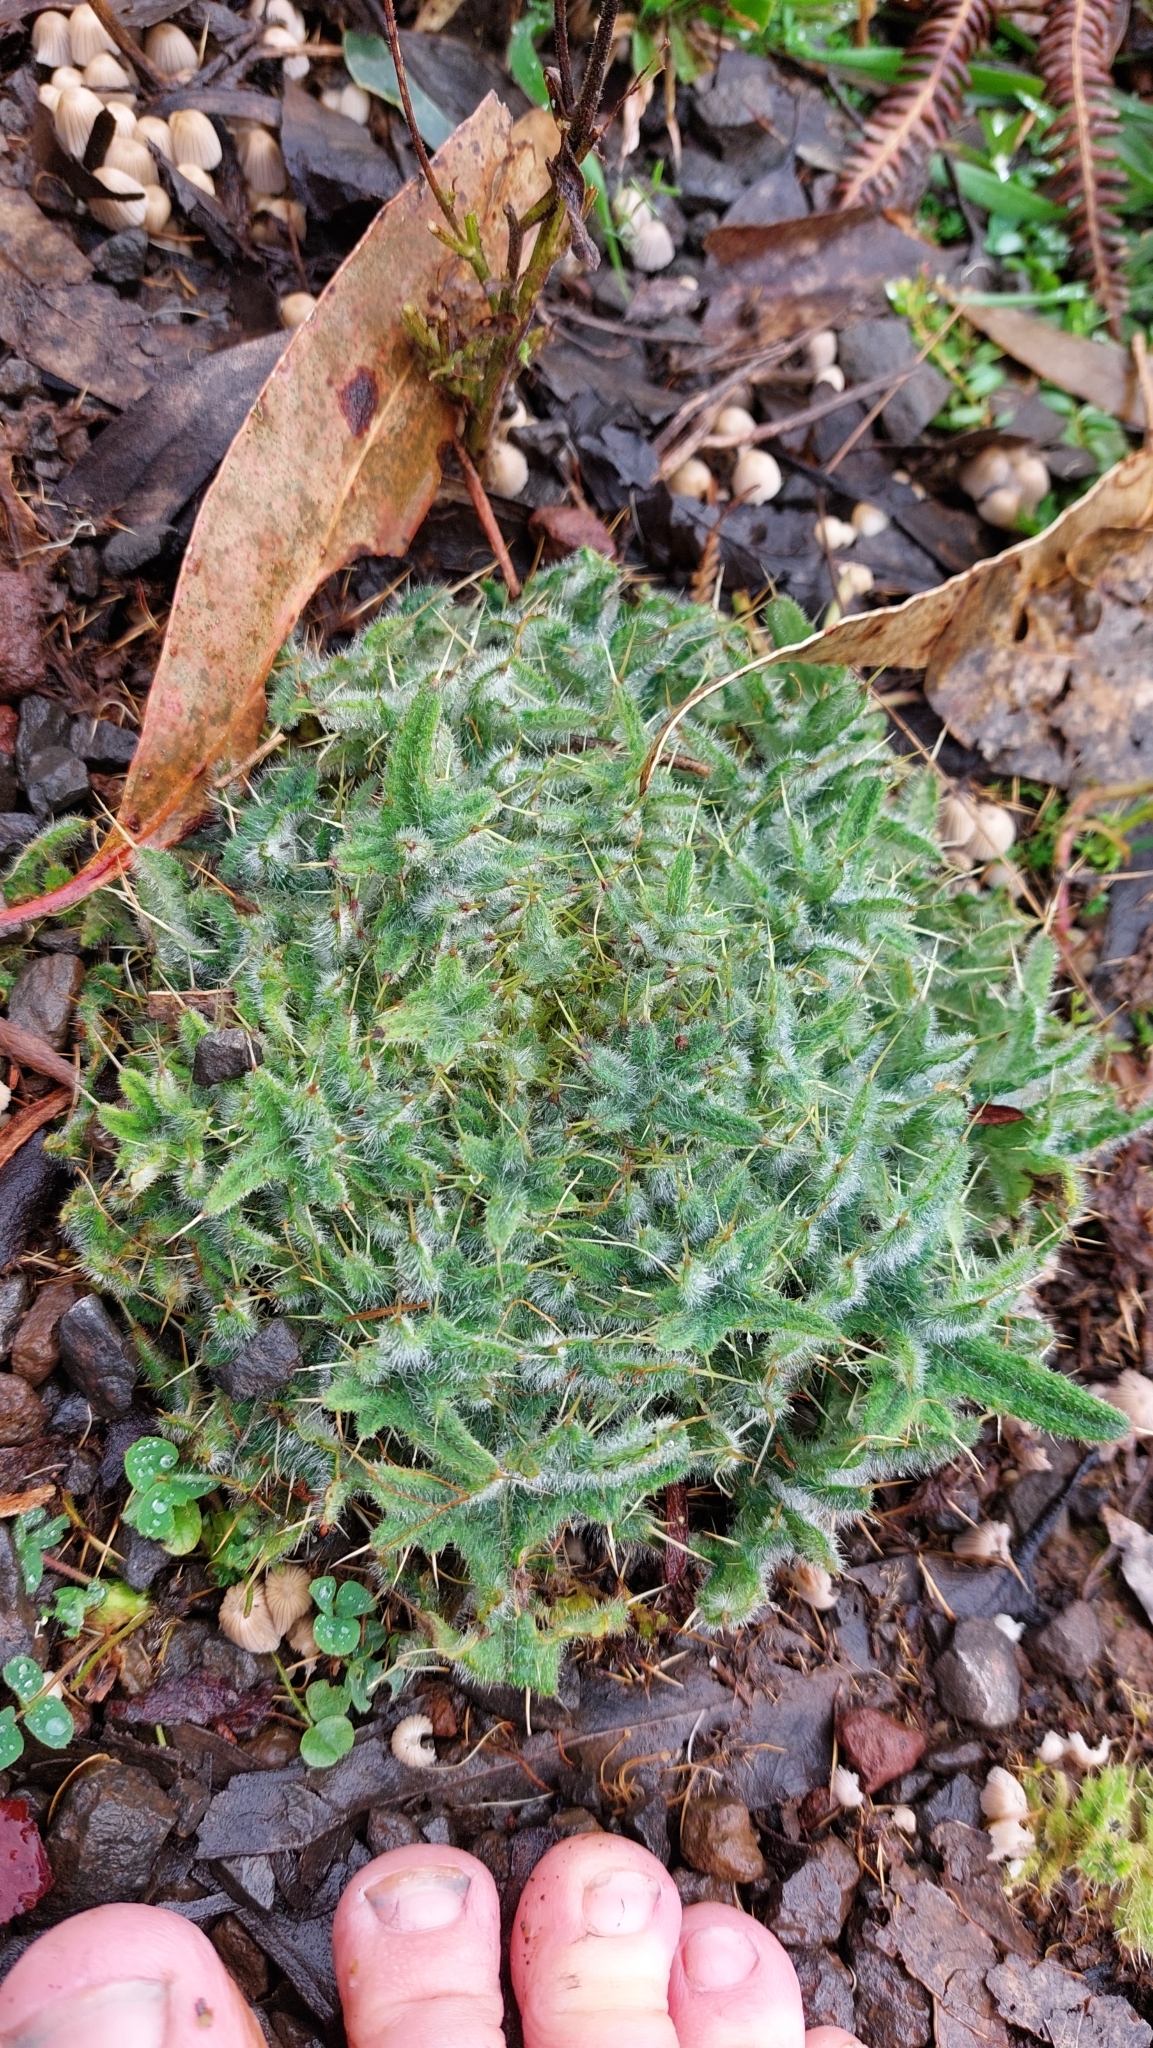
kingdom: Plantae
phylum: Tracheophyta
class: Magnoliopsida
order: Asterales
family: Asteraceae
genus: Cirsium
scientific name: Cirsium vulgare
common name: Bull thistle
